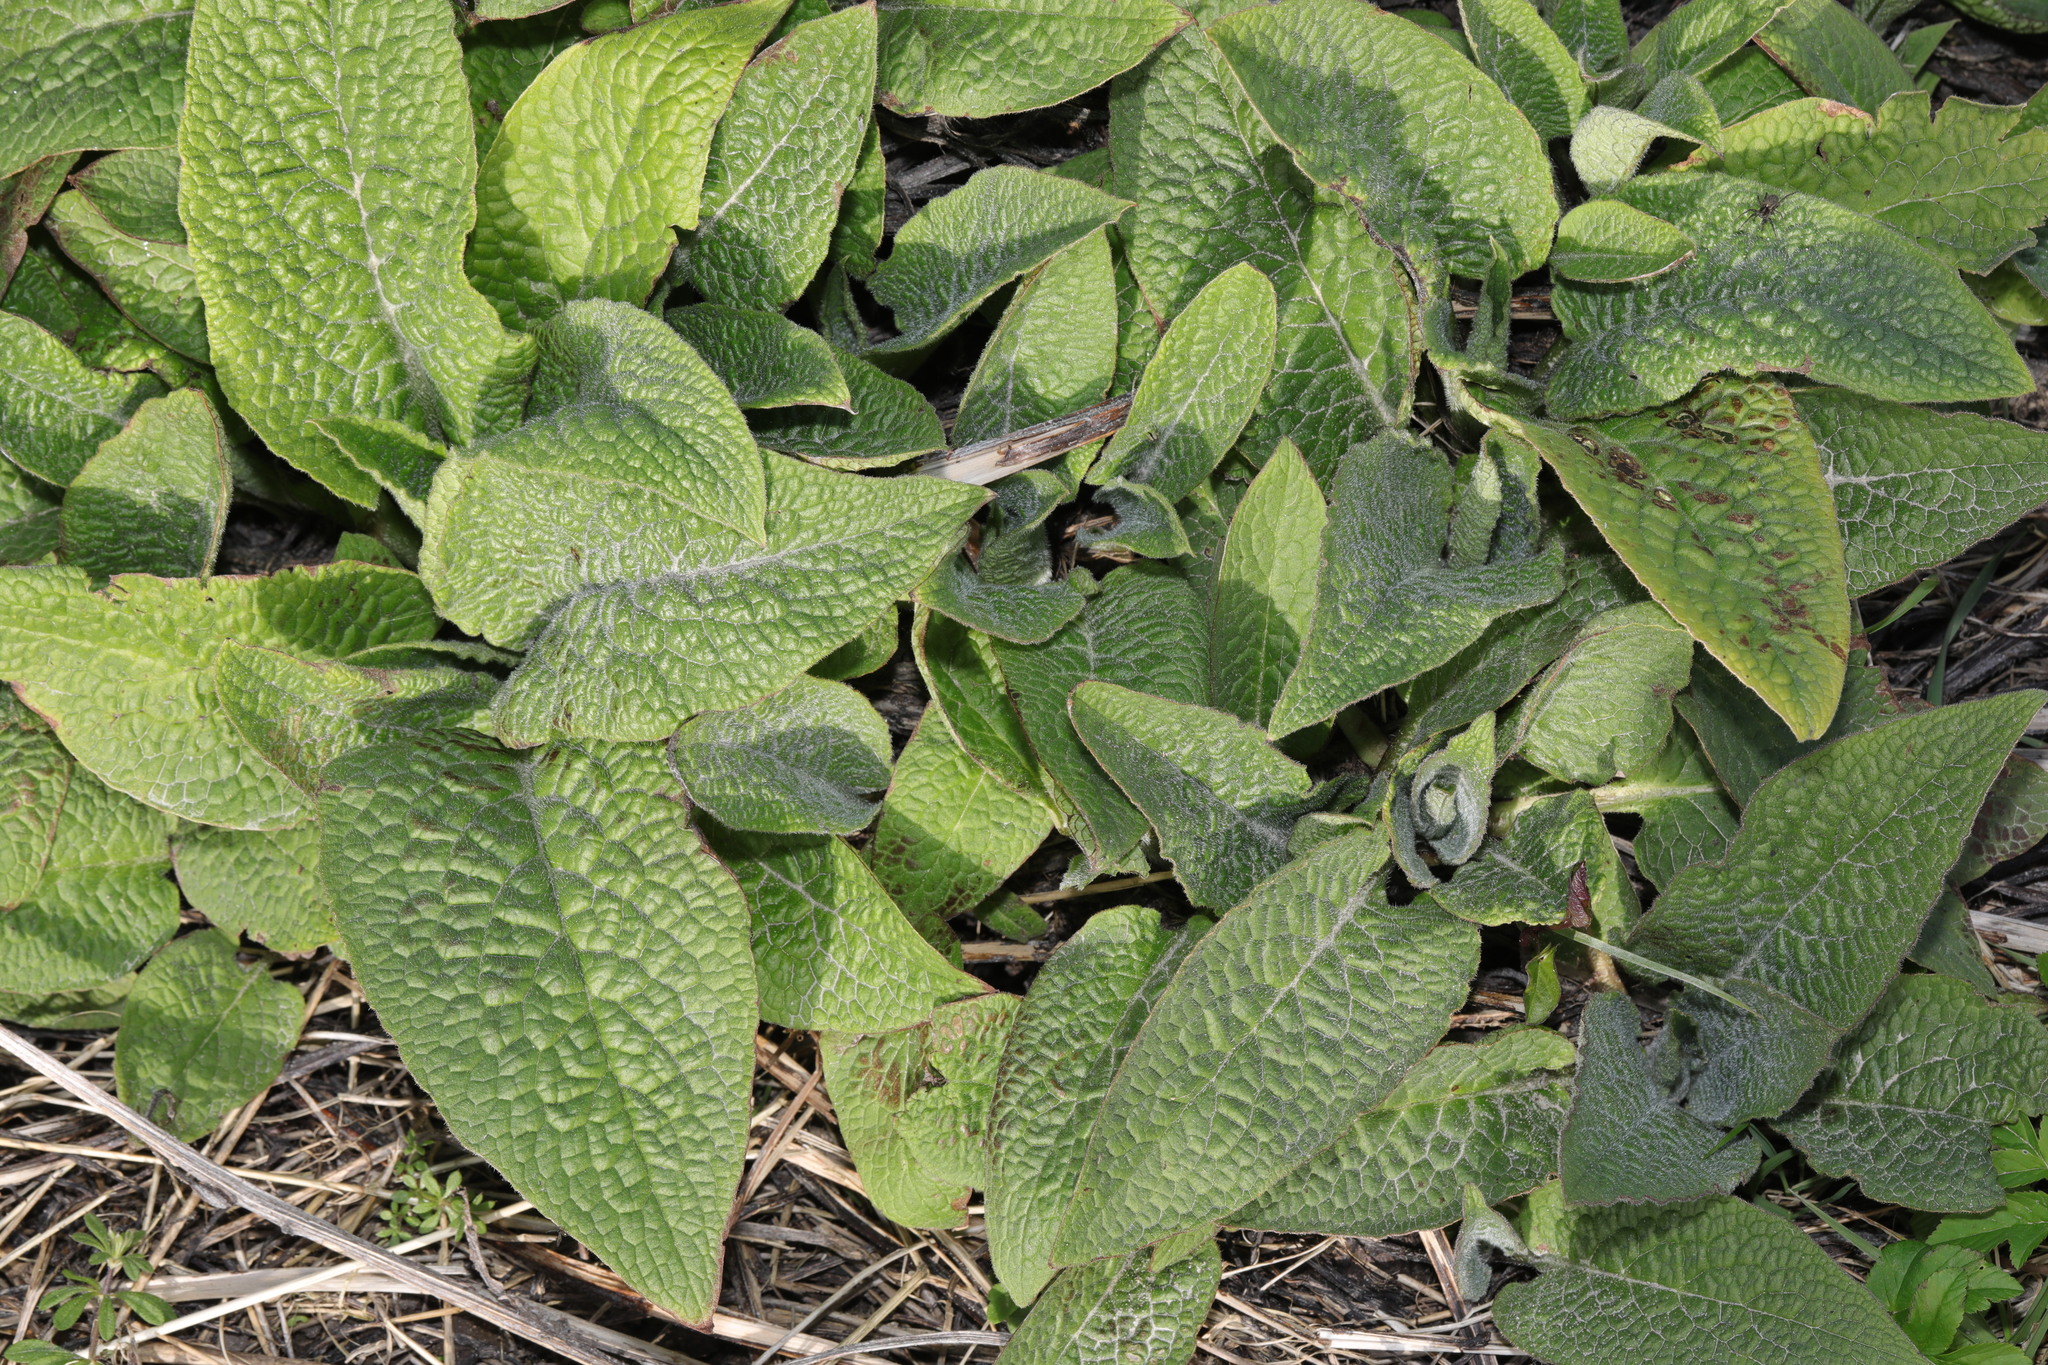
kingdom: Plantae
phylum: Tracheophyta
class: Magnoliopsida
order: Boraginales
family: Boraginaceae
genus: Symphytum
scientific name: Symphytum uplandicum
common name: Russian comfrey
